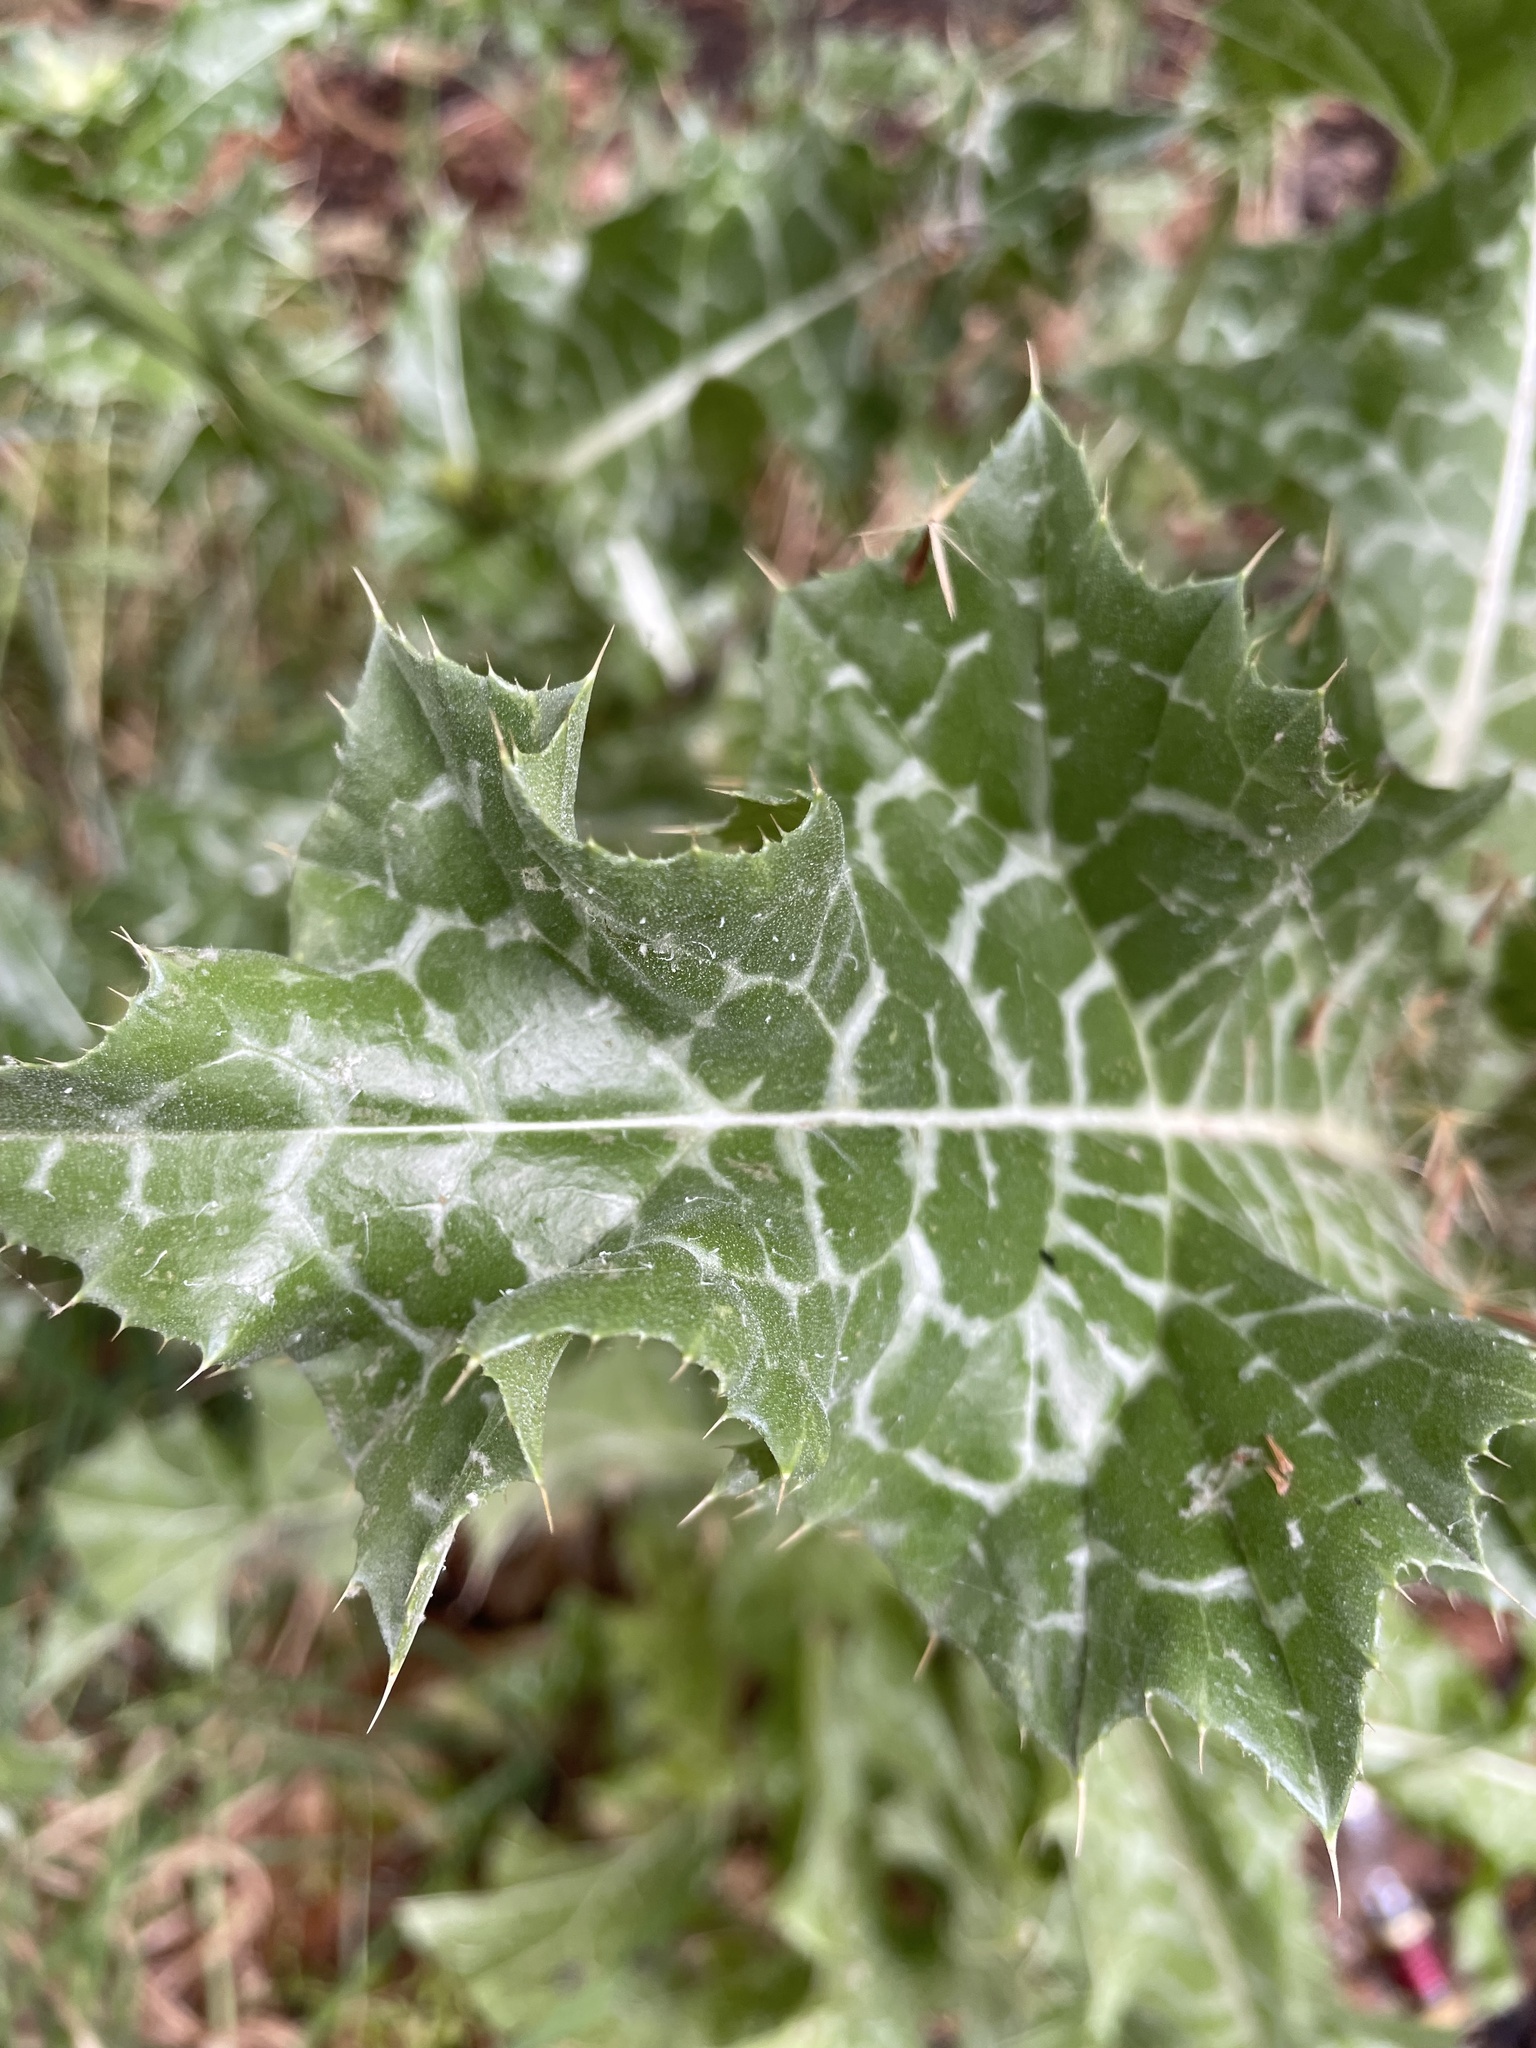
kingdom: Plantae
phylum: Tracheophyta
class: Magnoliopsida
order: Asterales
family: Asteraceae
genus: Silybum
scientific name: Silybum marianum
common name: Milk thistle
